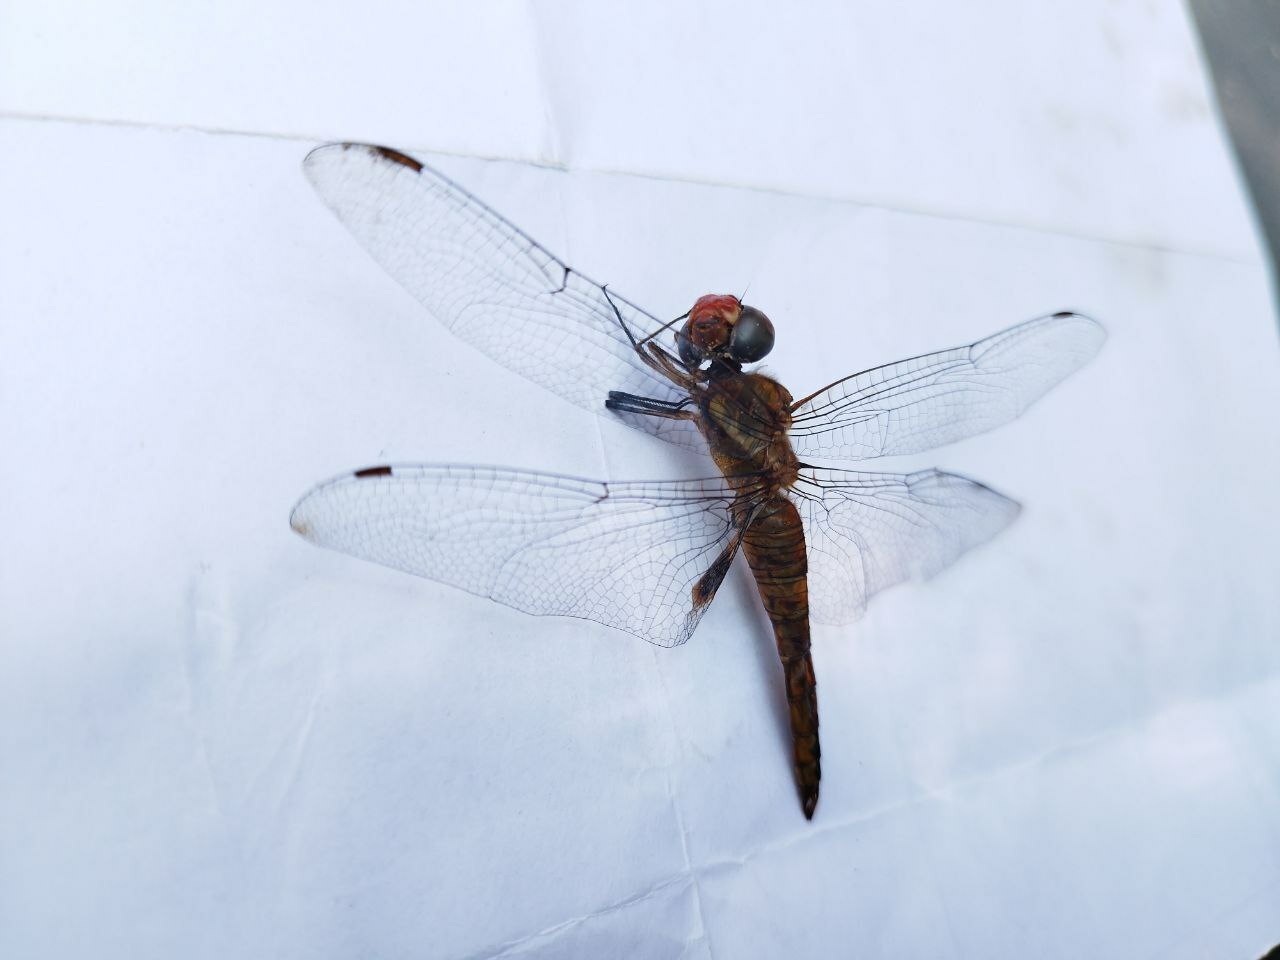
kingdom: Animalia
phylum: Arthropoda
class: Insecta
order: Odonata
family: Libellulidae
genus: Pantala
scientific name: Pantala hymenaea
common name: Spot-winged glider
